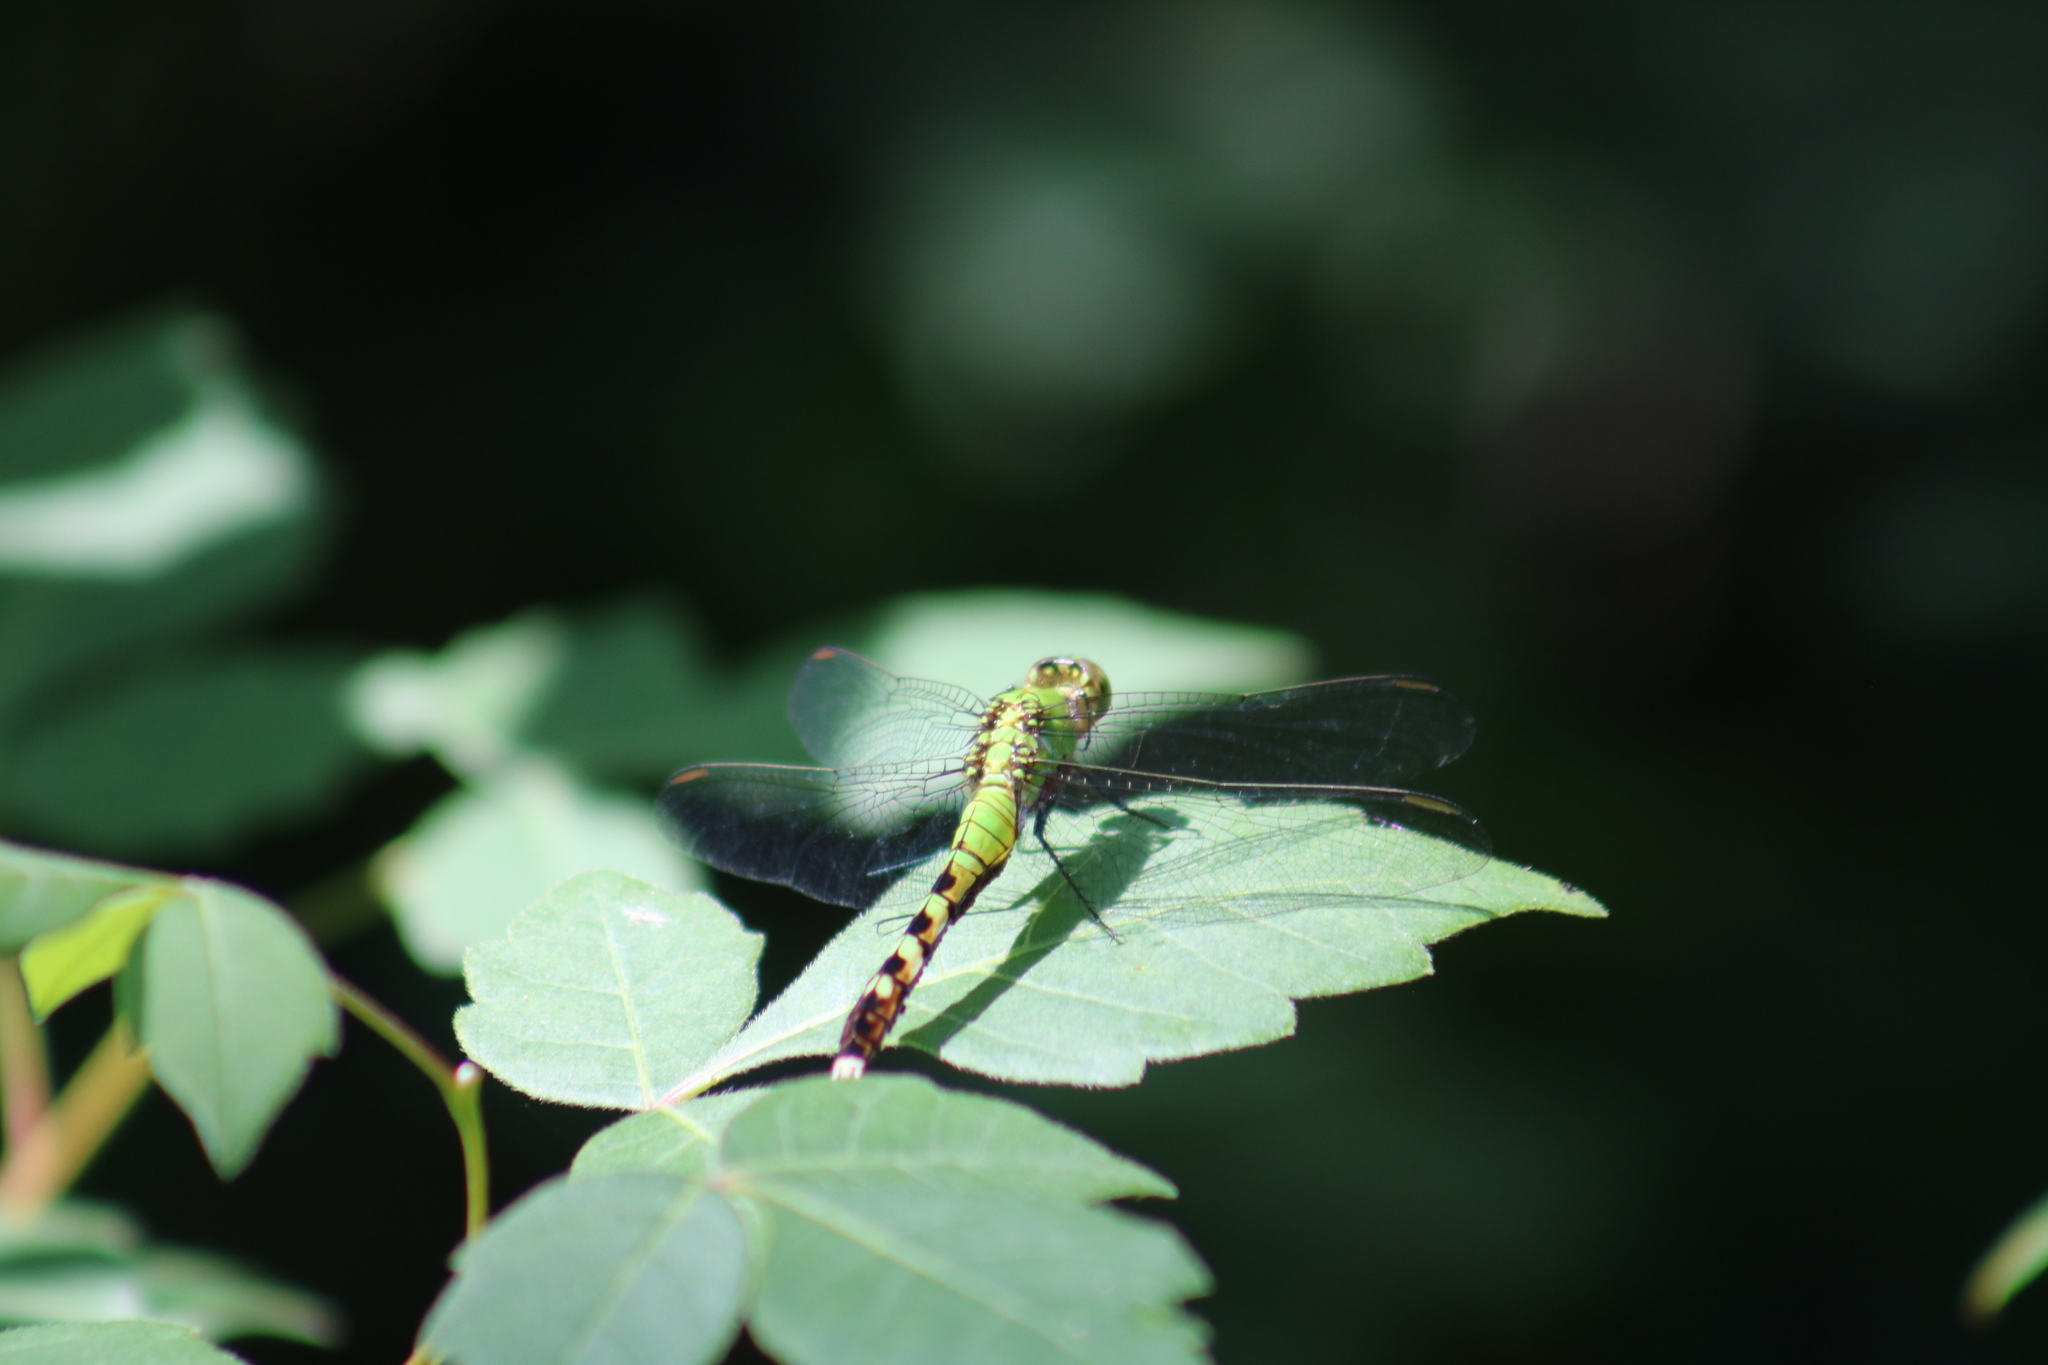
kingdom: Animalia
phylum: Arthropoda
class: Insecta
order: Odonata
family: Libellulidae
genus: Erythemis
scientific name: Erythemis simplicicollis
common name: Eastern pondhawk
